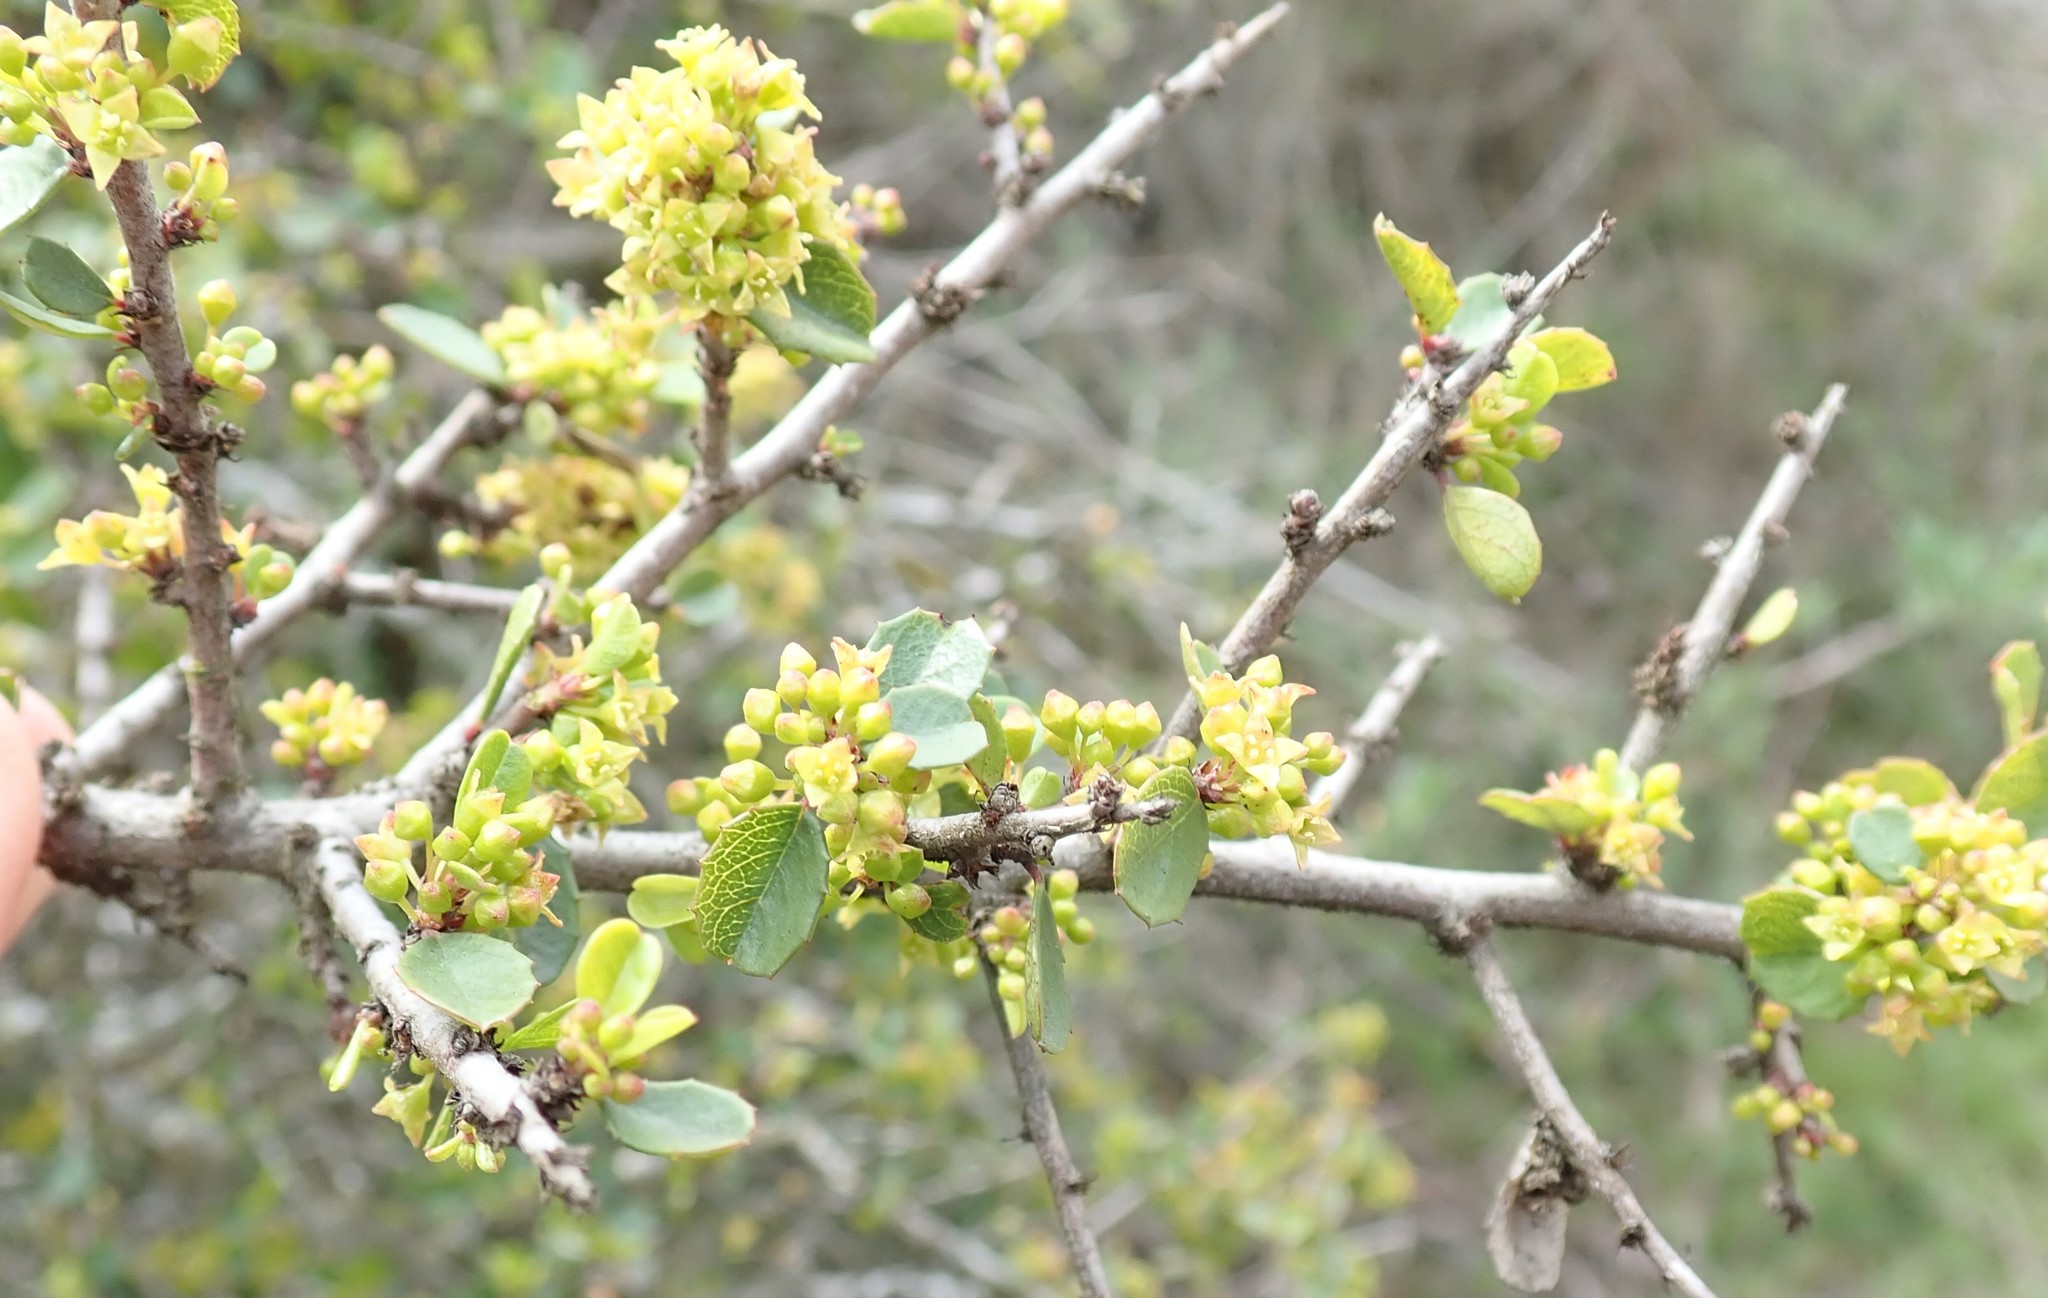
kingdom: Plantae
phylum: Tracheophyta
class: Magnoliopsida
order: Rosales
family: Rhamnaceae
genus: Endotropis
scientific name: Endotropis crocea
